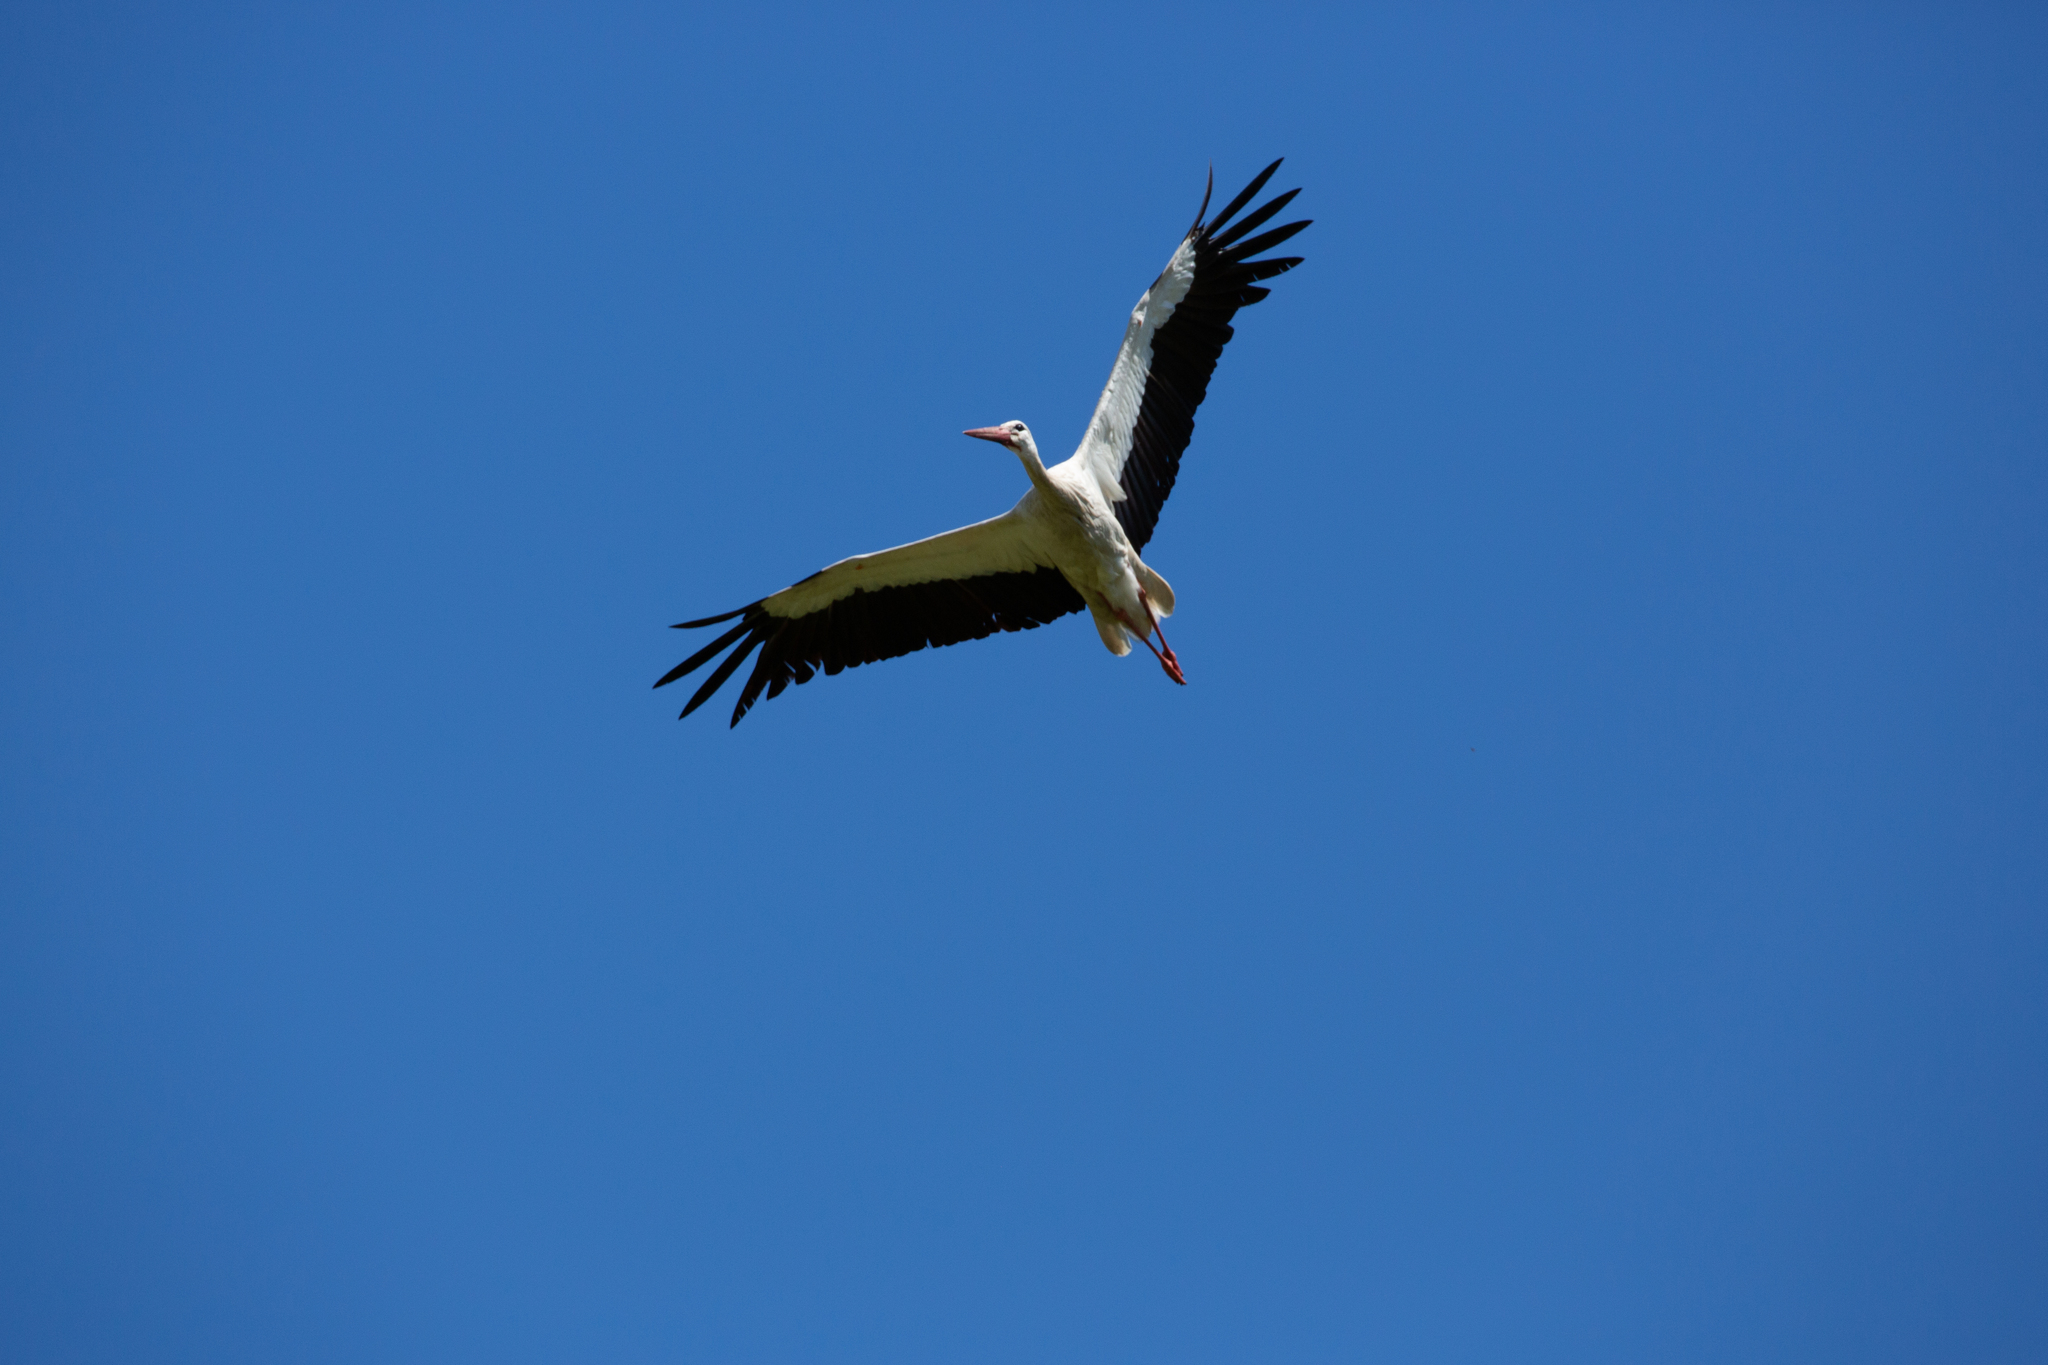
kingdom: Animalia
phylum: Chordata
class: Aves
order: Ciconiiformes
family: Ciconiidae
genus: Ciconia
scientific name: Ciconia ciconia
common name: White stork
